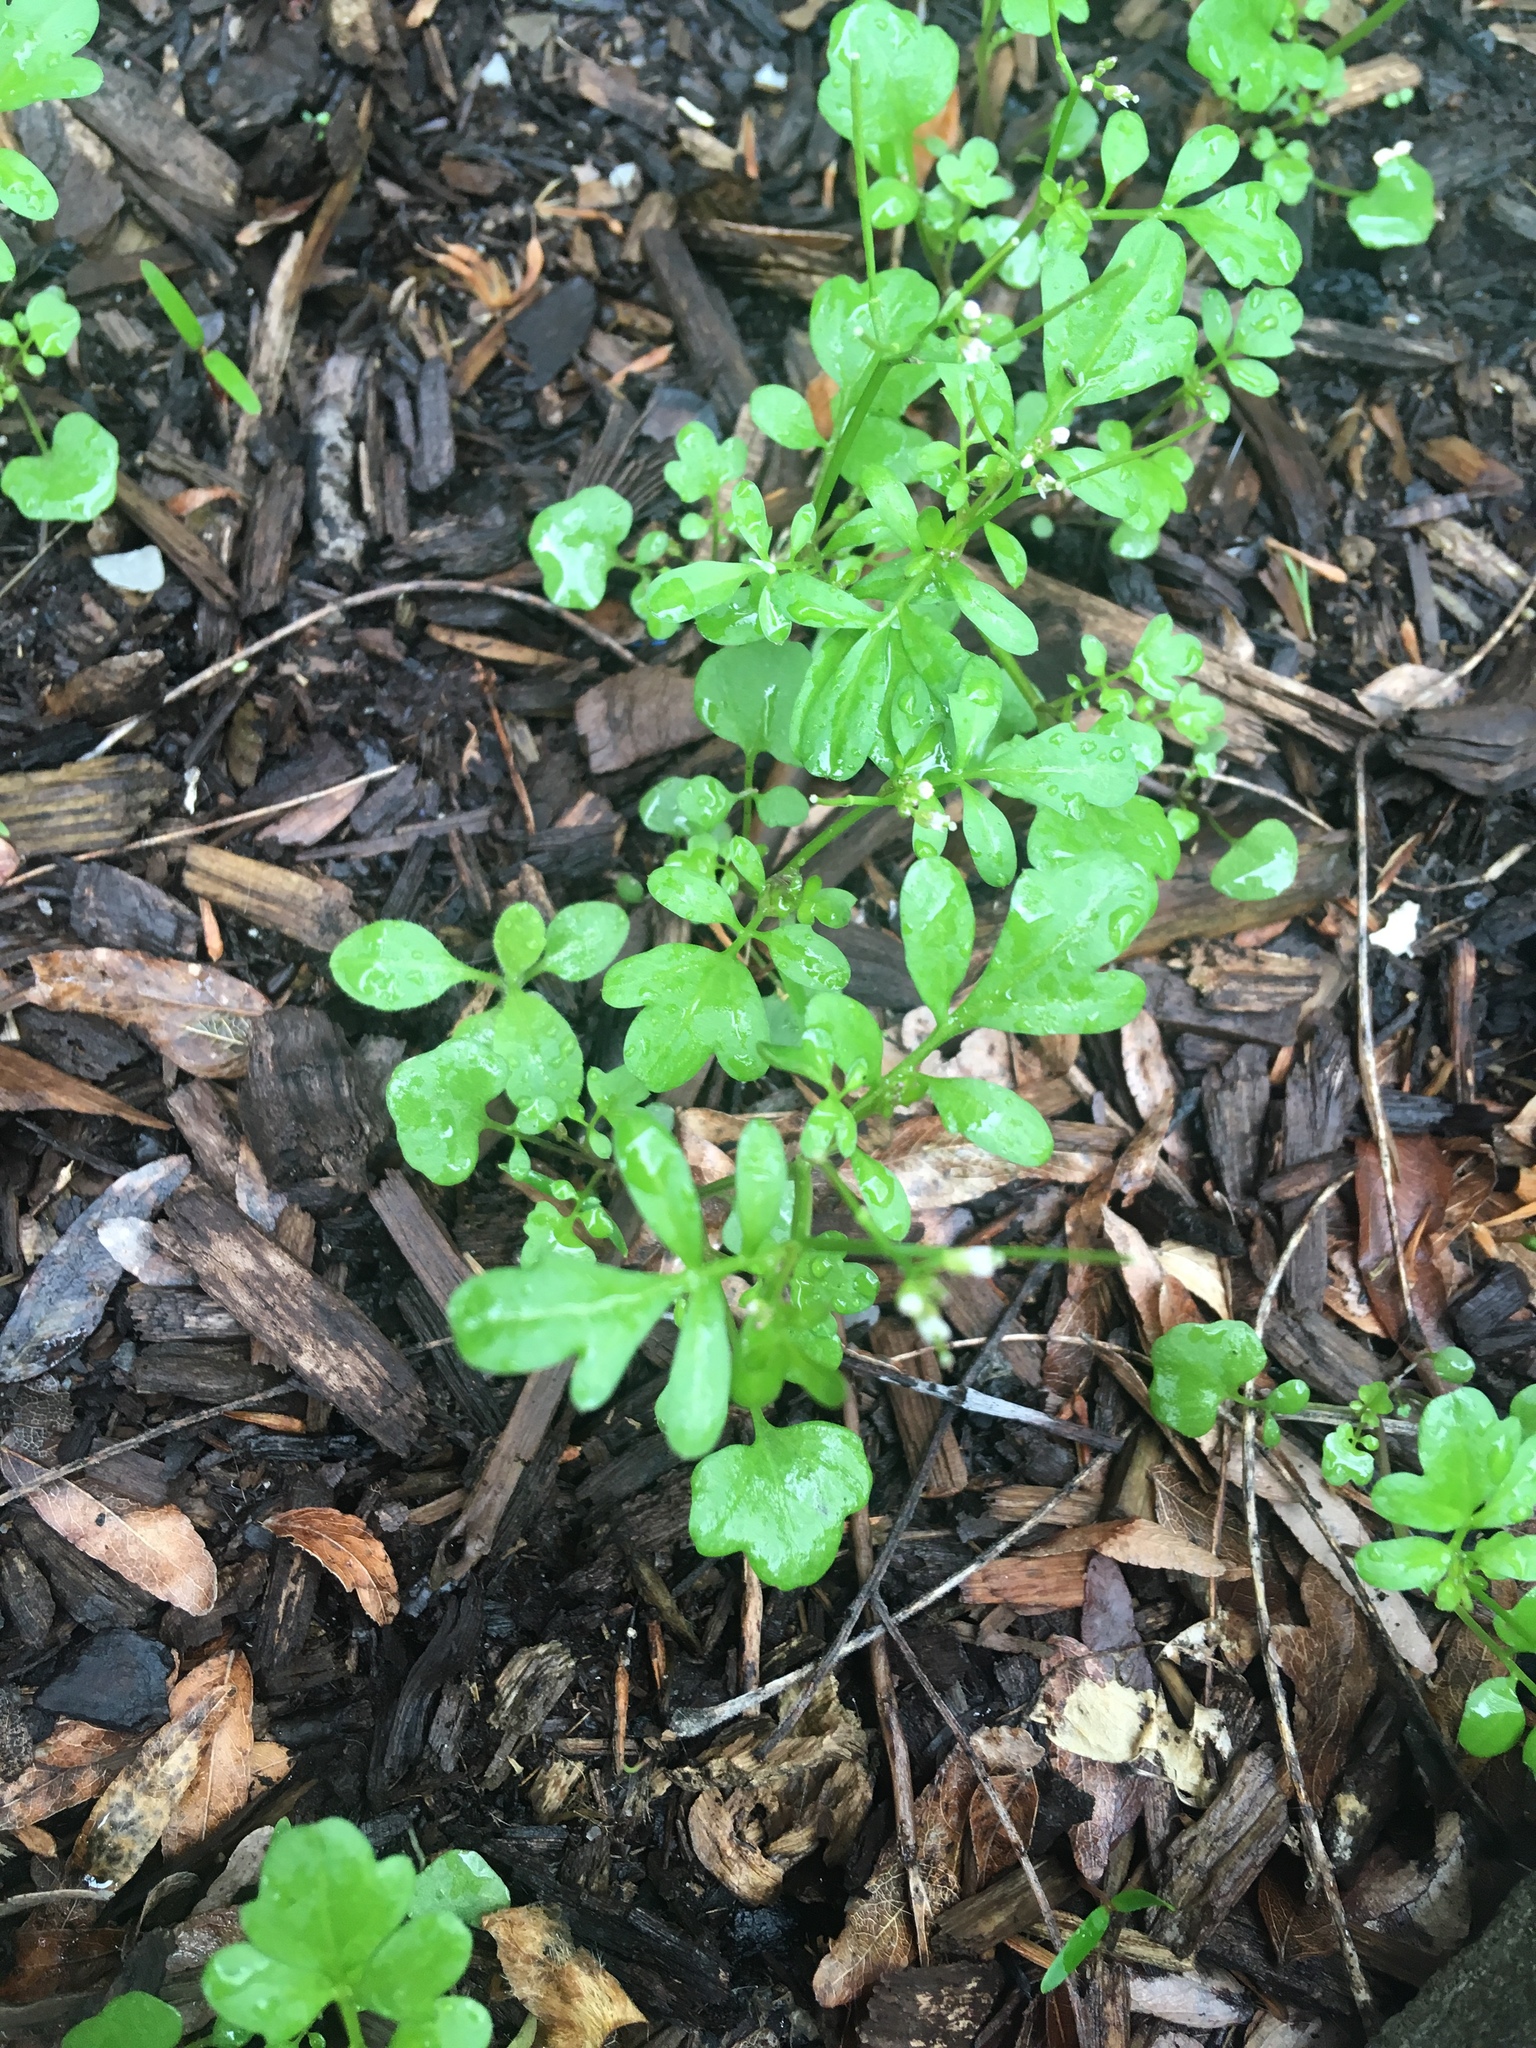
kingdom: Plantae
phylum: Tracheophyta
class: Magnoliopsida
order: Brassicales
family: Brassicaceae
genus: Cardamine
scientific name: Cardamine occulta
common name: Asian wavy bittercress
